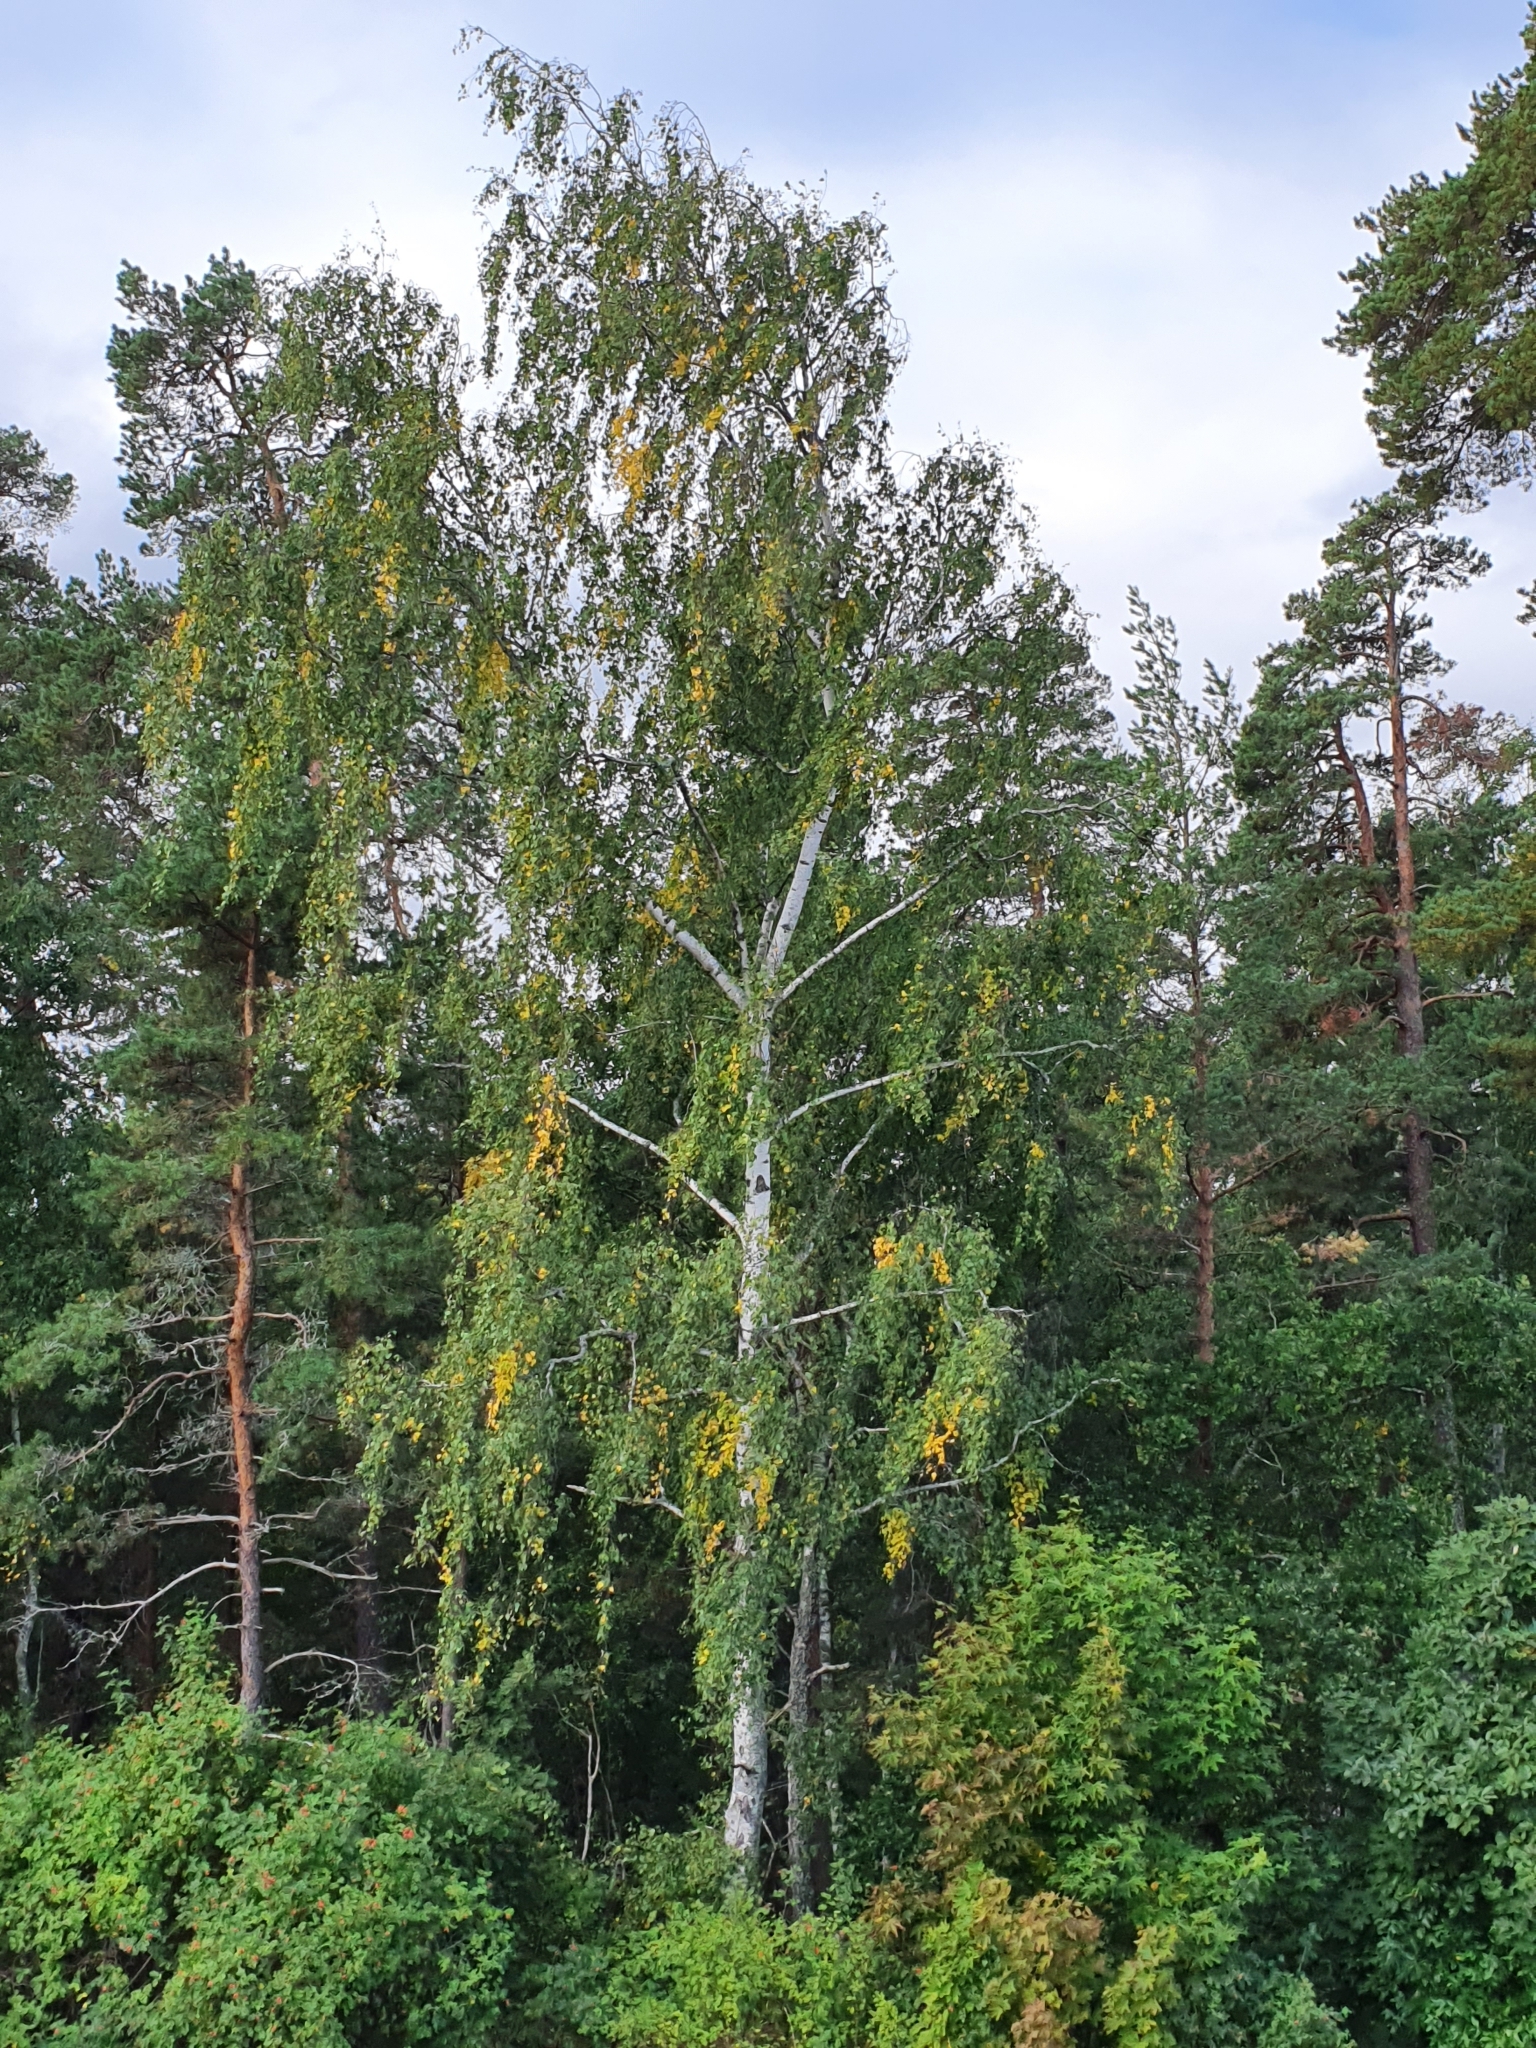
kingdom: Plantae
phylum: Tracheophyta
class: Magnoliopsida
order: Fagales
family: Betulaceae
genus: Betula
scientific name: Betula pendula
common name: Silver birch
